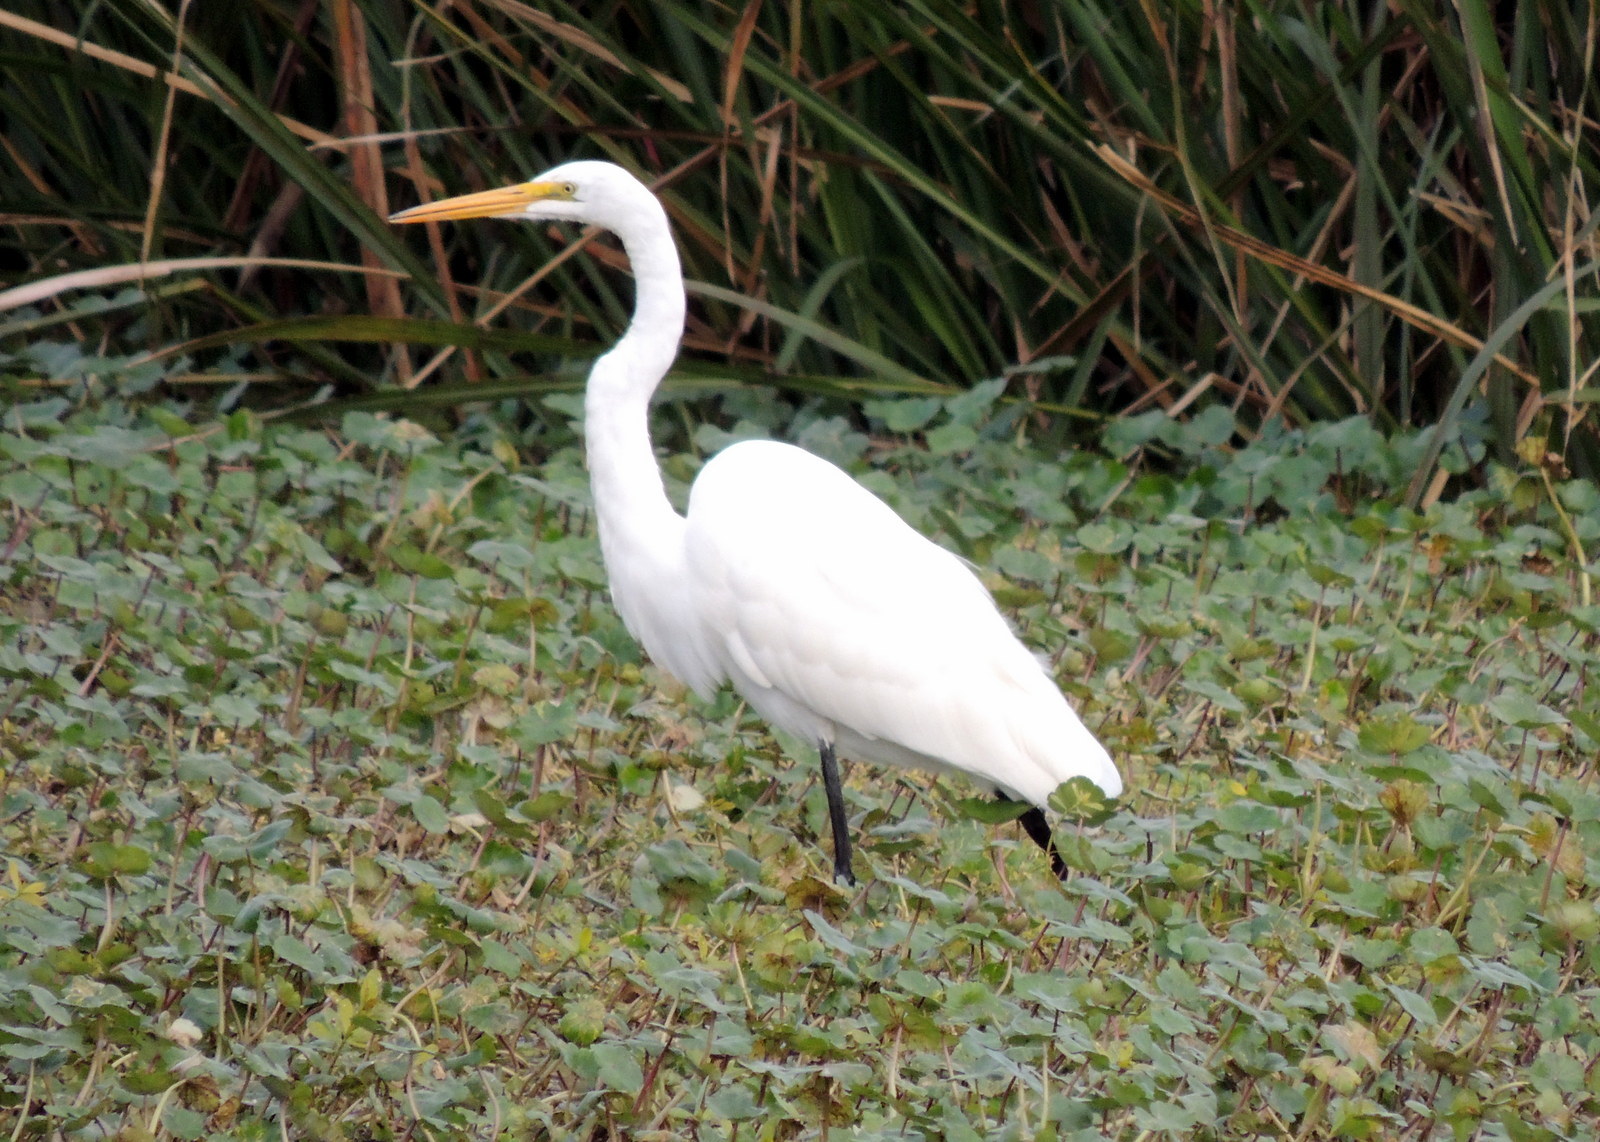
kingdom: Animalia
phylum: Chordata
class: Aves
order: Pelecaniformes
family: Ardeidae
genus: Ardea
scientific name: Ardea alba
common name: Great egret
